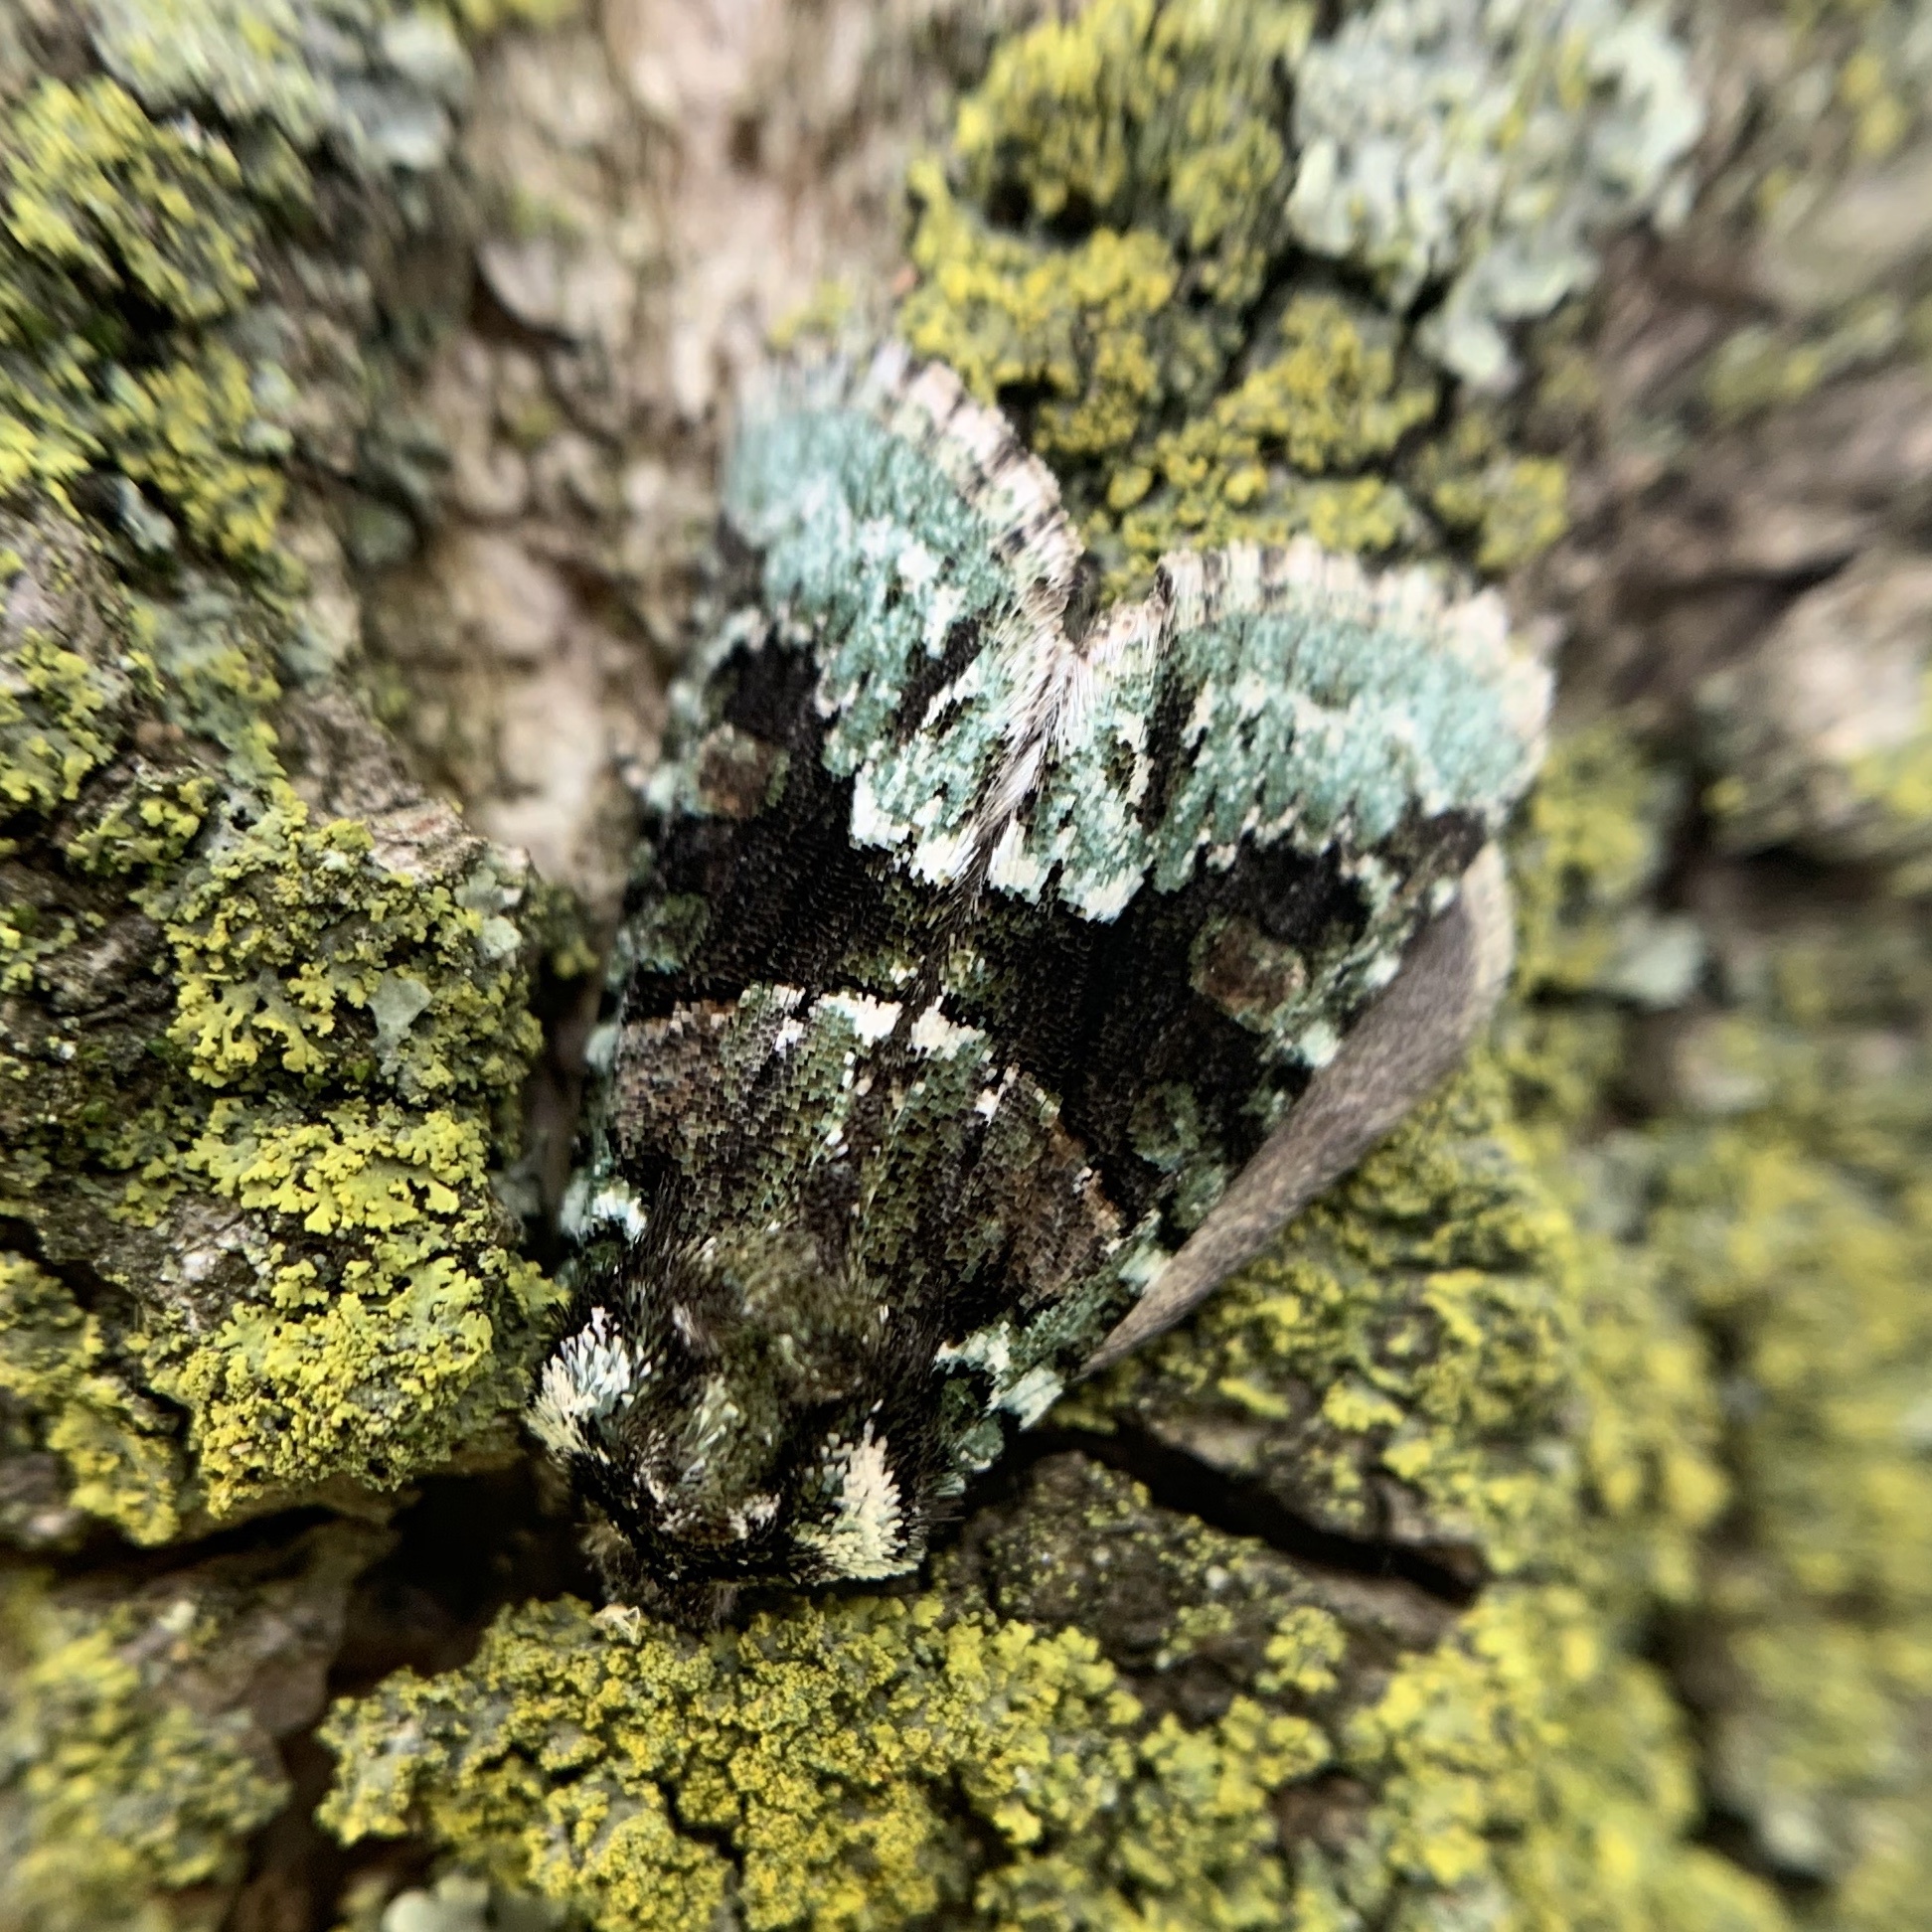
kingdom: Animalia
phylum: Arthropoda
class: Insecta
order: Lepidoptera
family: Noctuidae
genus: Lacinipolia
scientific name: Lacinipolia explicata
